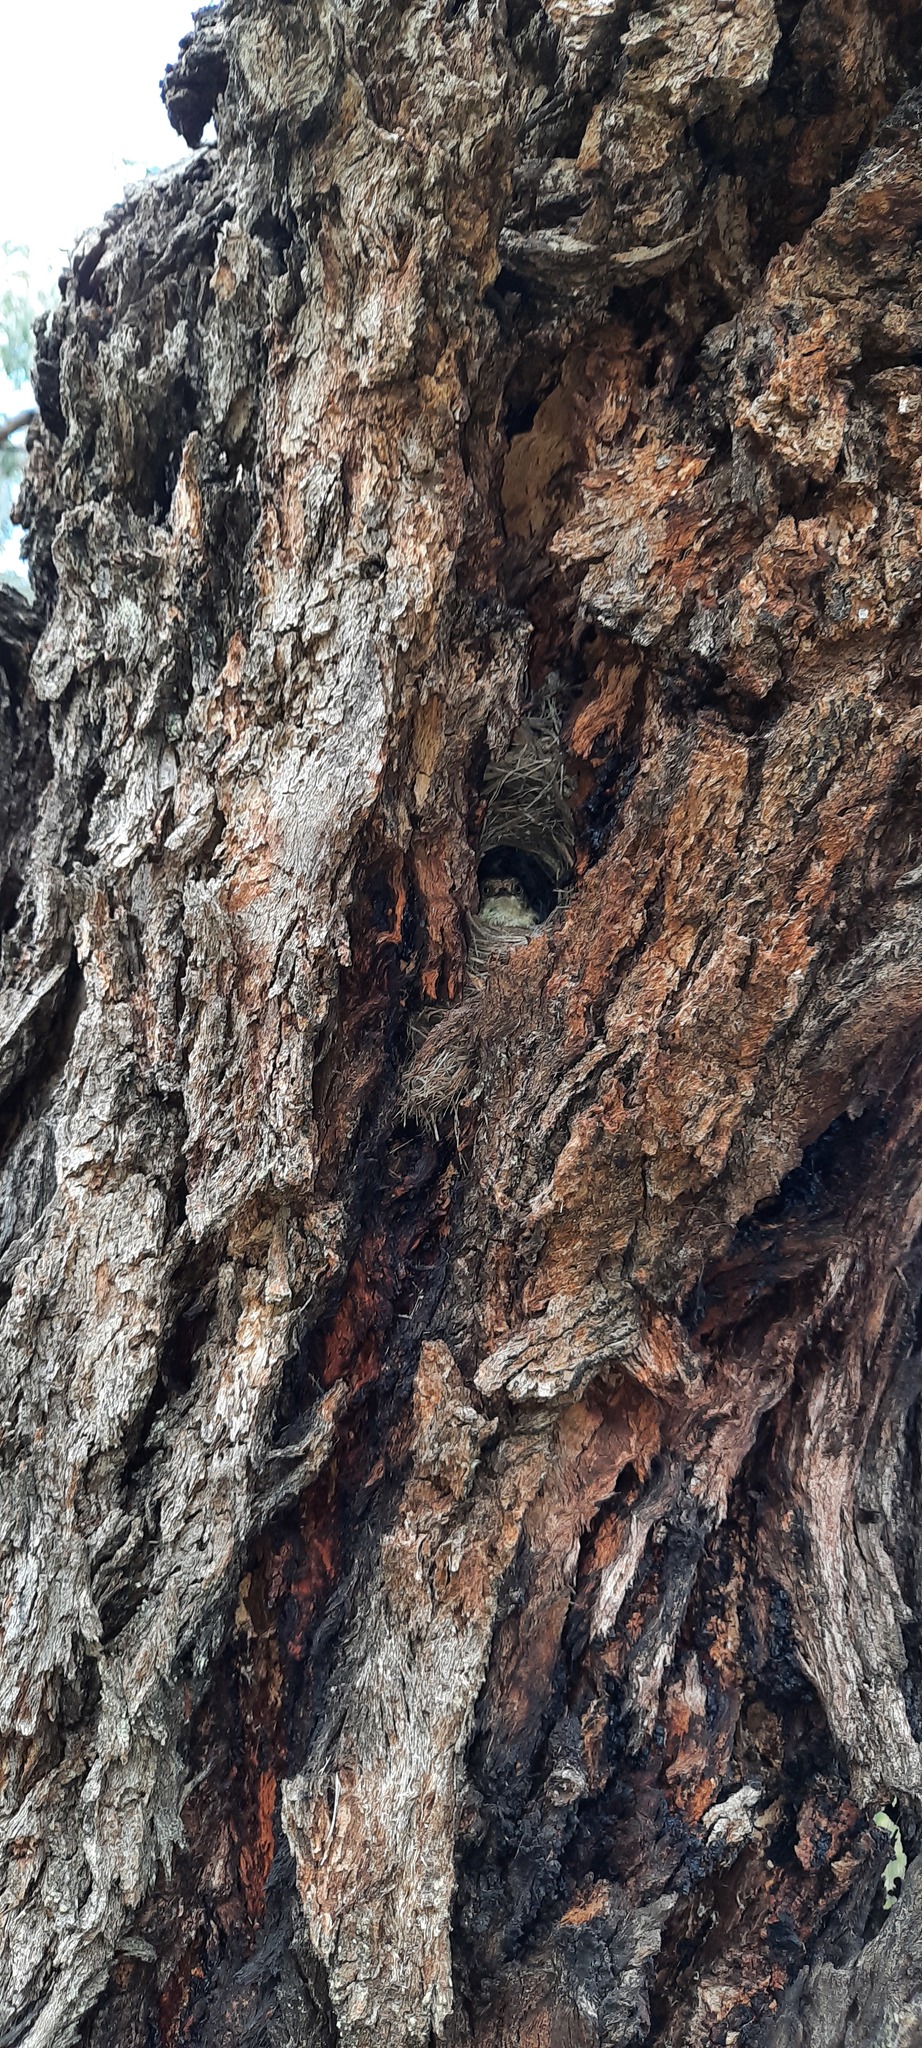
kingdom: Animalia
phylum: Chordata
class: Aves
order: Passeriformes
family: Acanthizidae
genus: Acanthiza
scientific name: Acanthiza reguloides
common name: Buff-rumped thornbill
